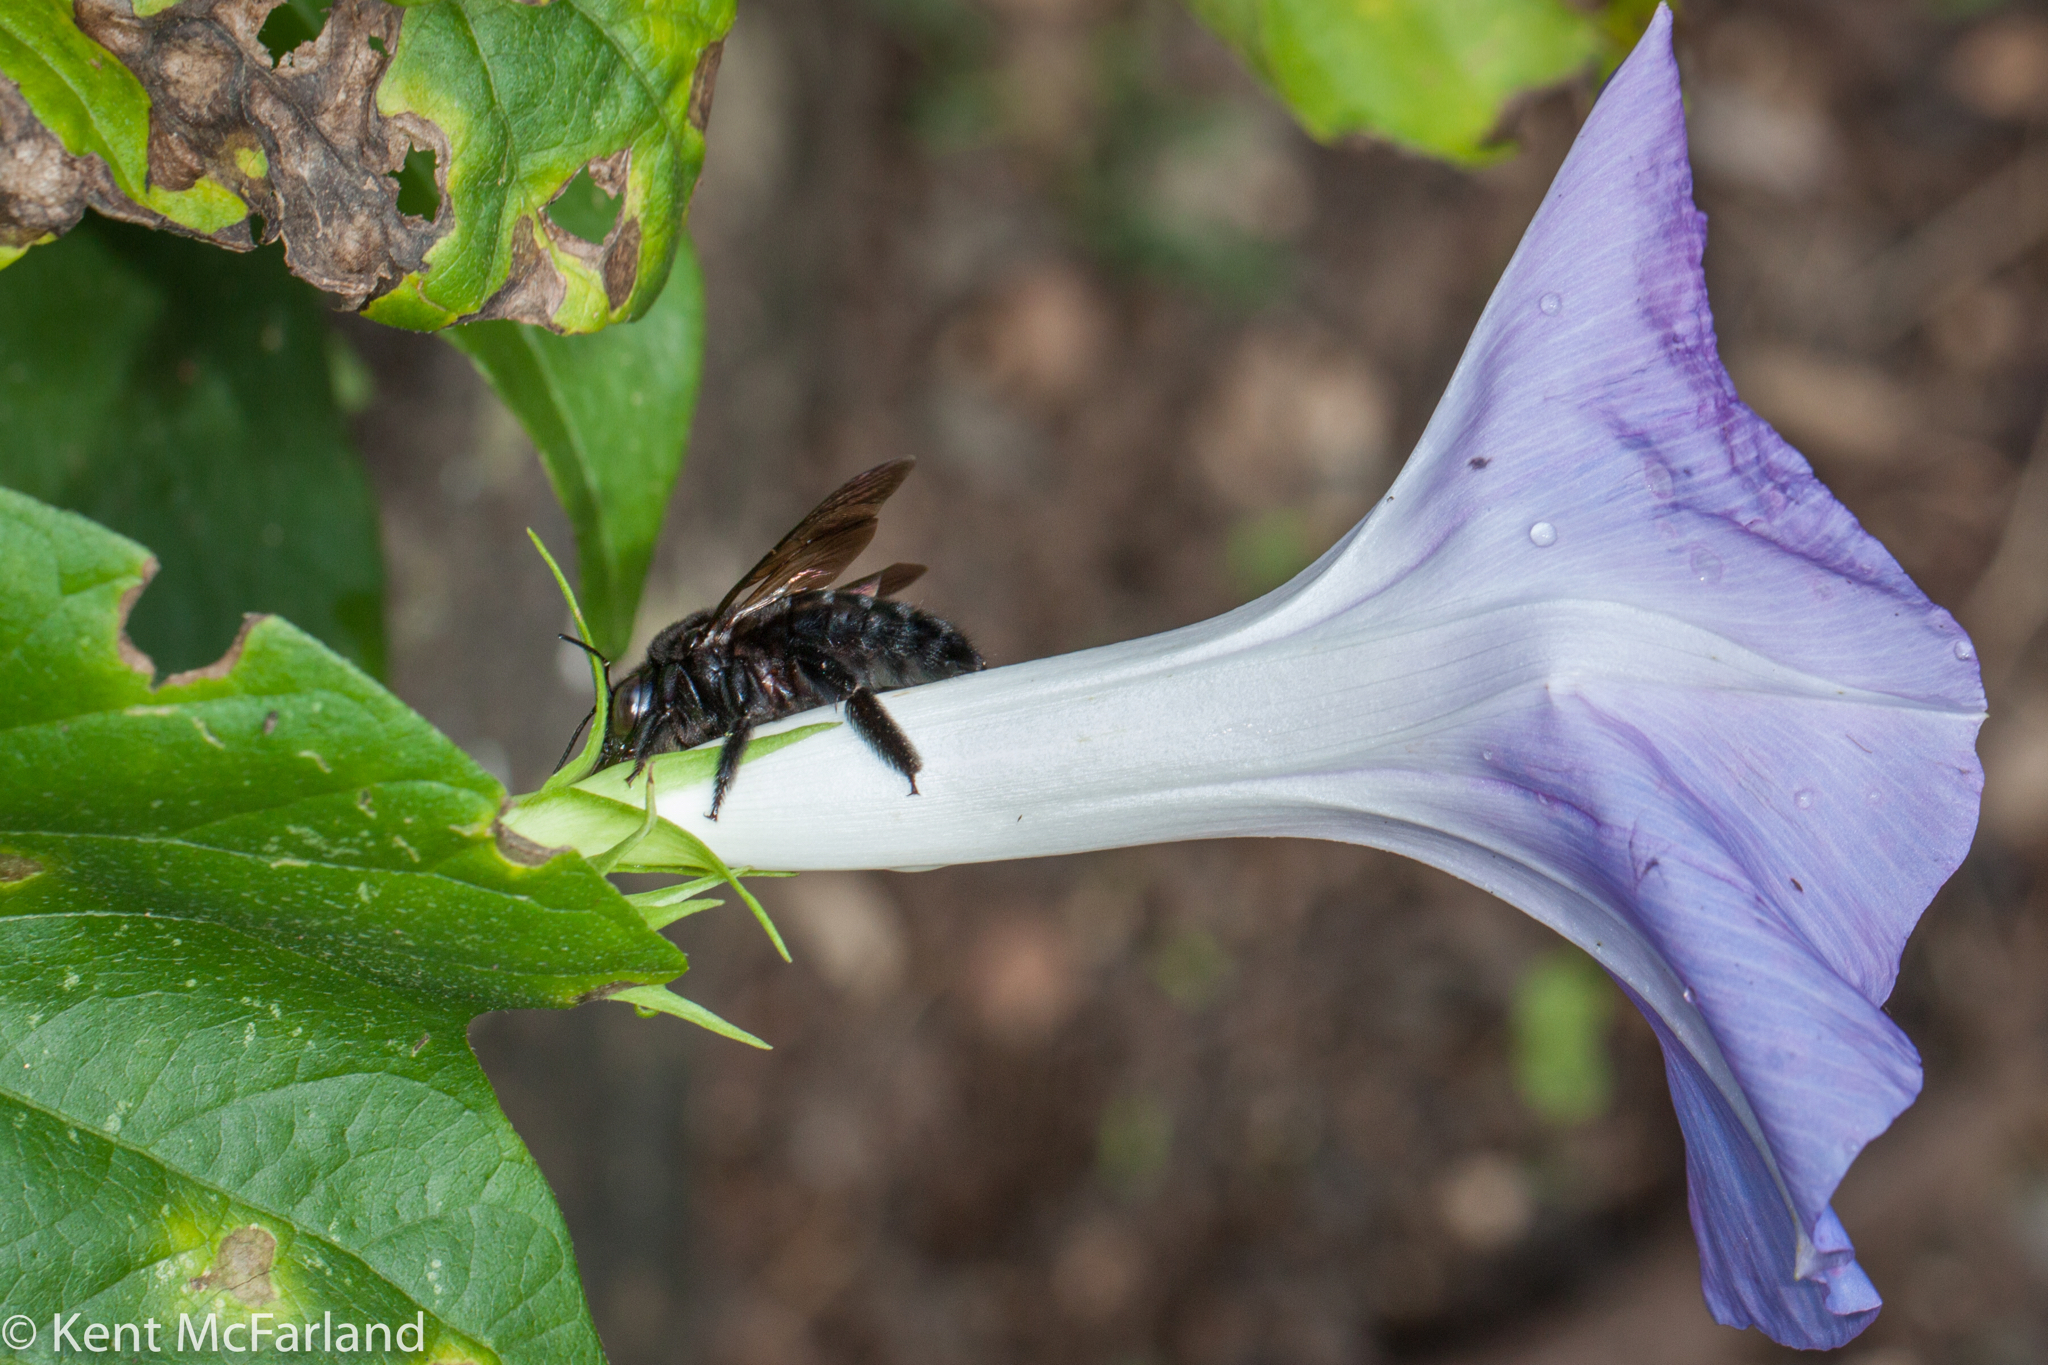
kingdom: Animalia
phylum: Arthropoda
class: Insecta
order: Hymenoptera
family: Apidae
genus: Xylocopa
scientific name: Xylocopa sonorina
